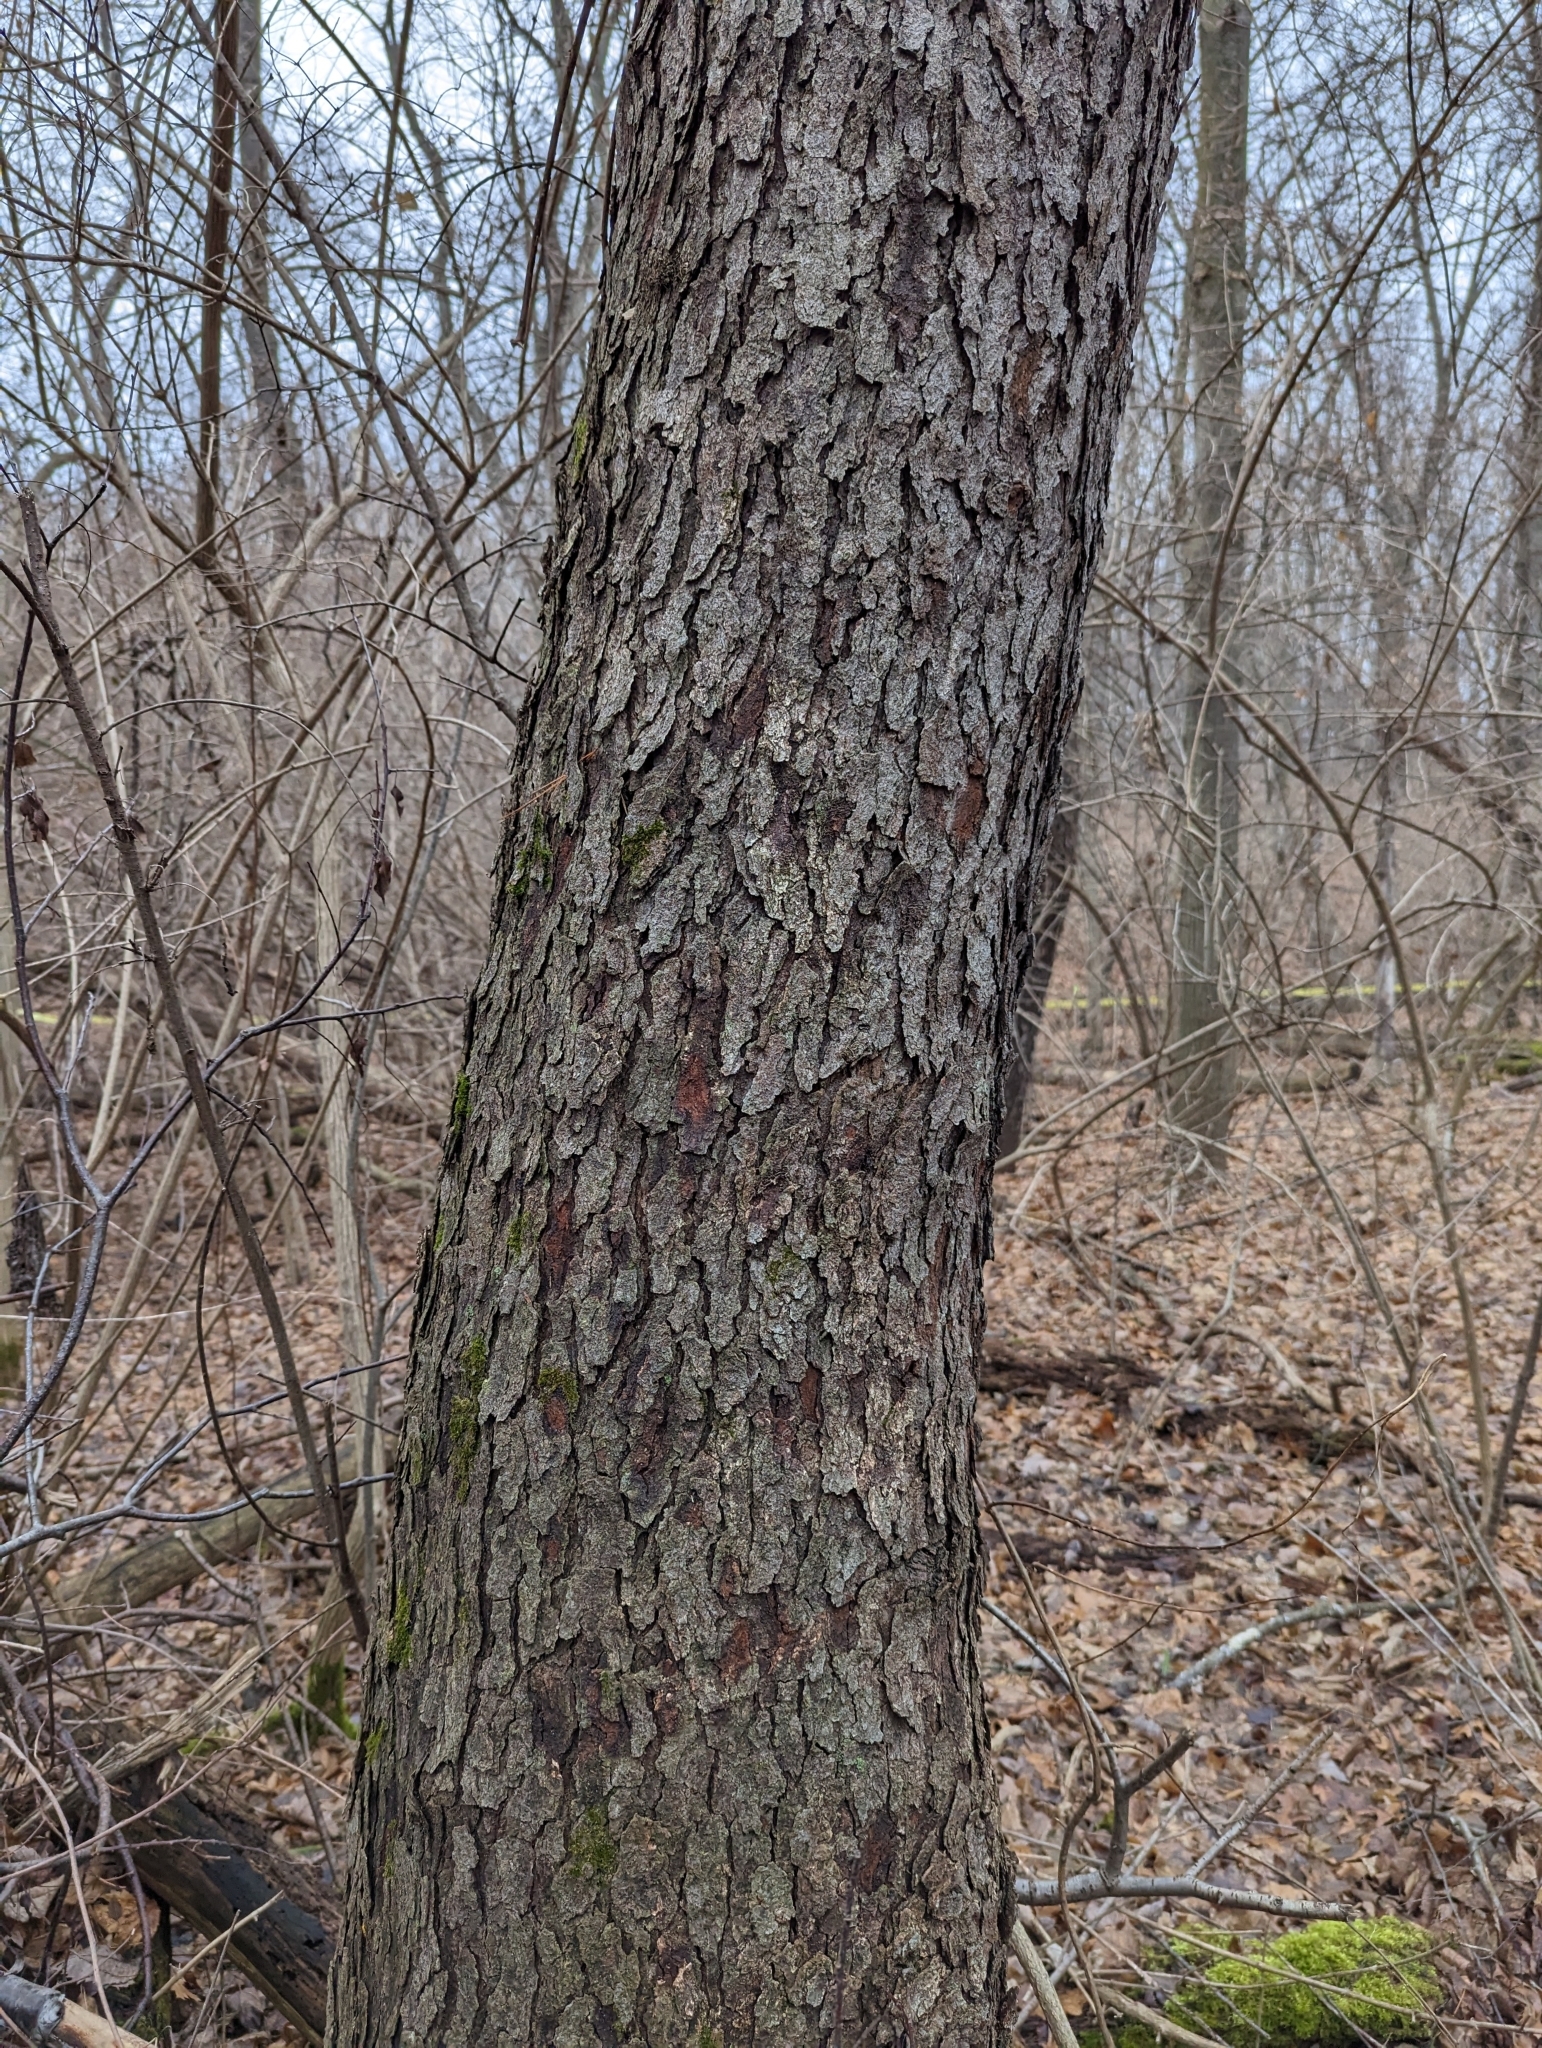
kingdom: Plantae
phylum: Tracheophyta
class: Magnoliopsida
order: Rosales
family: Rosaceae
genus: Prunus
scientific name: Prunus serotina
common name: Black cherry
